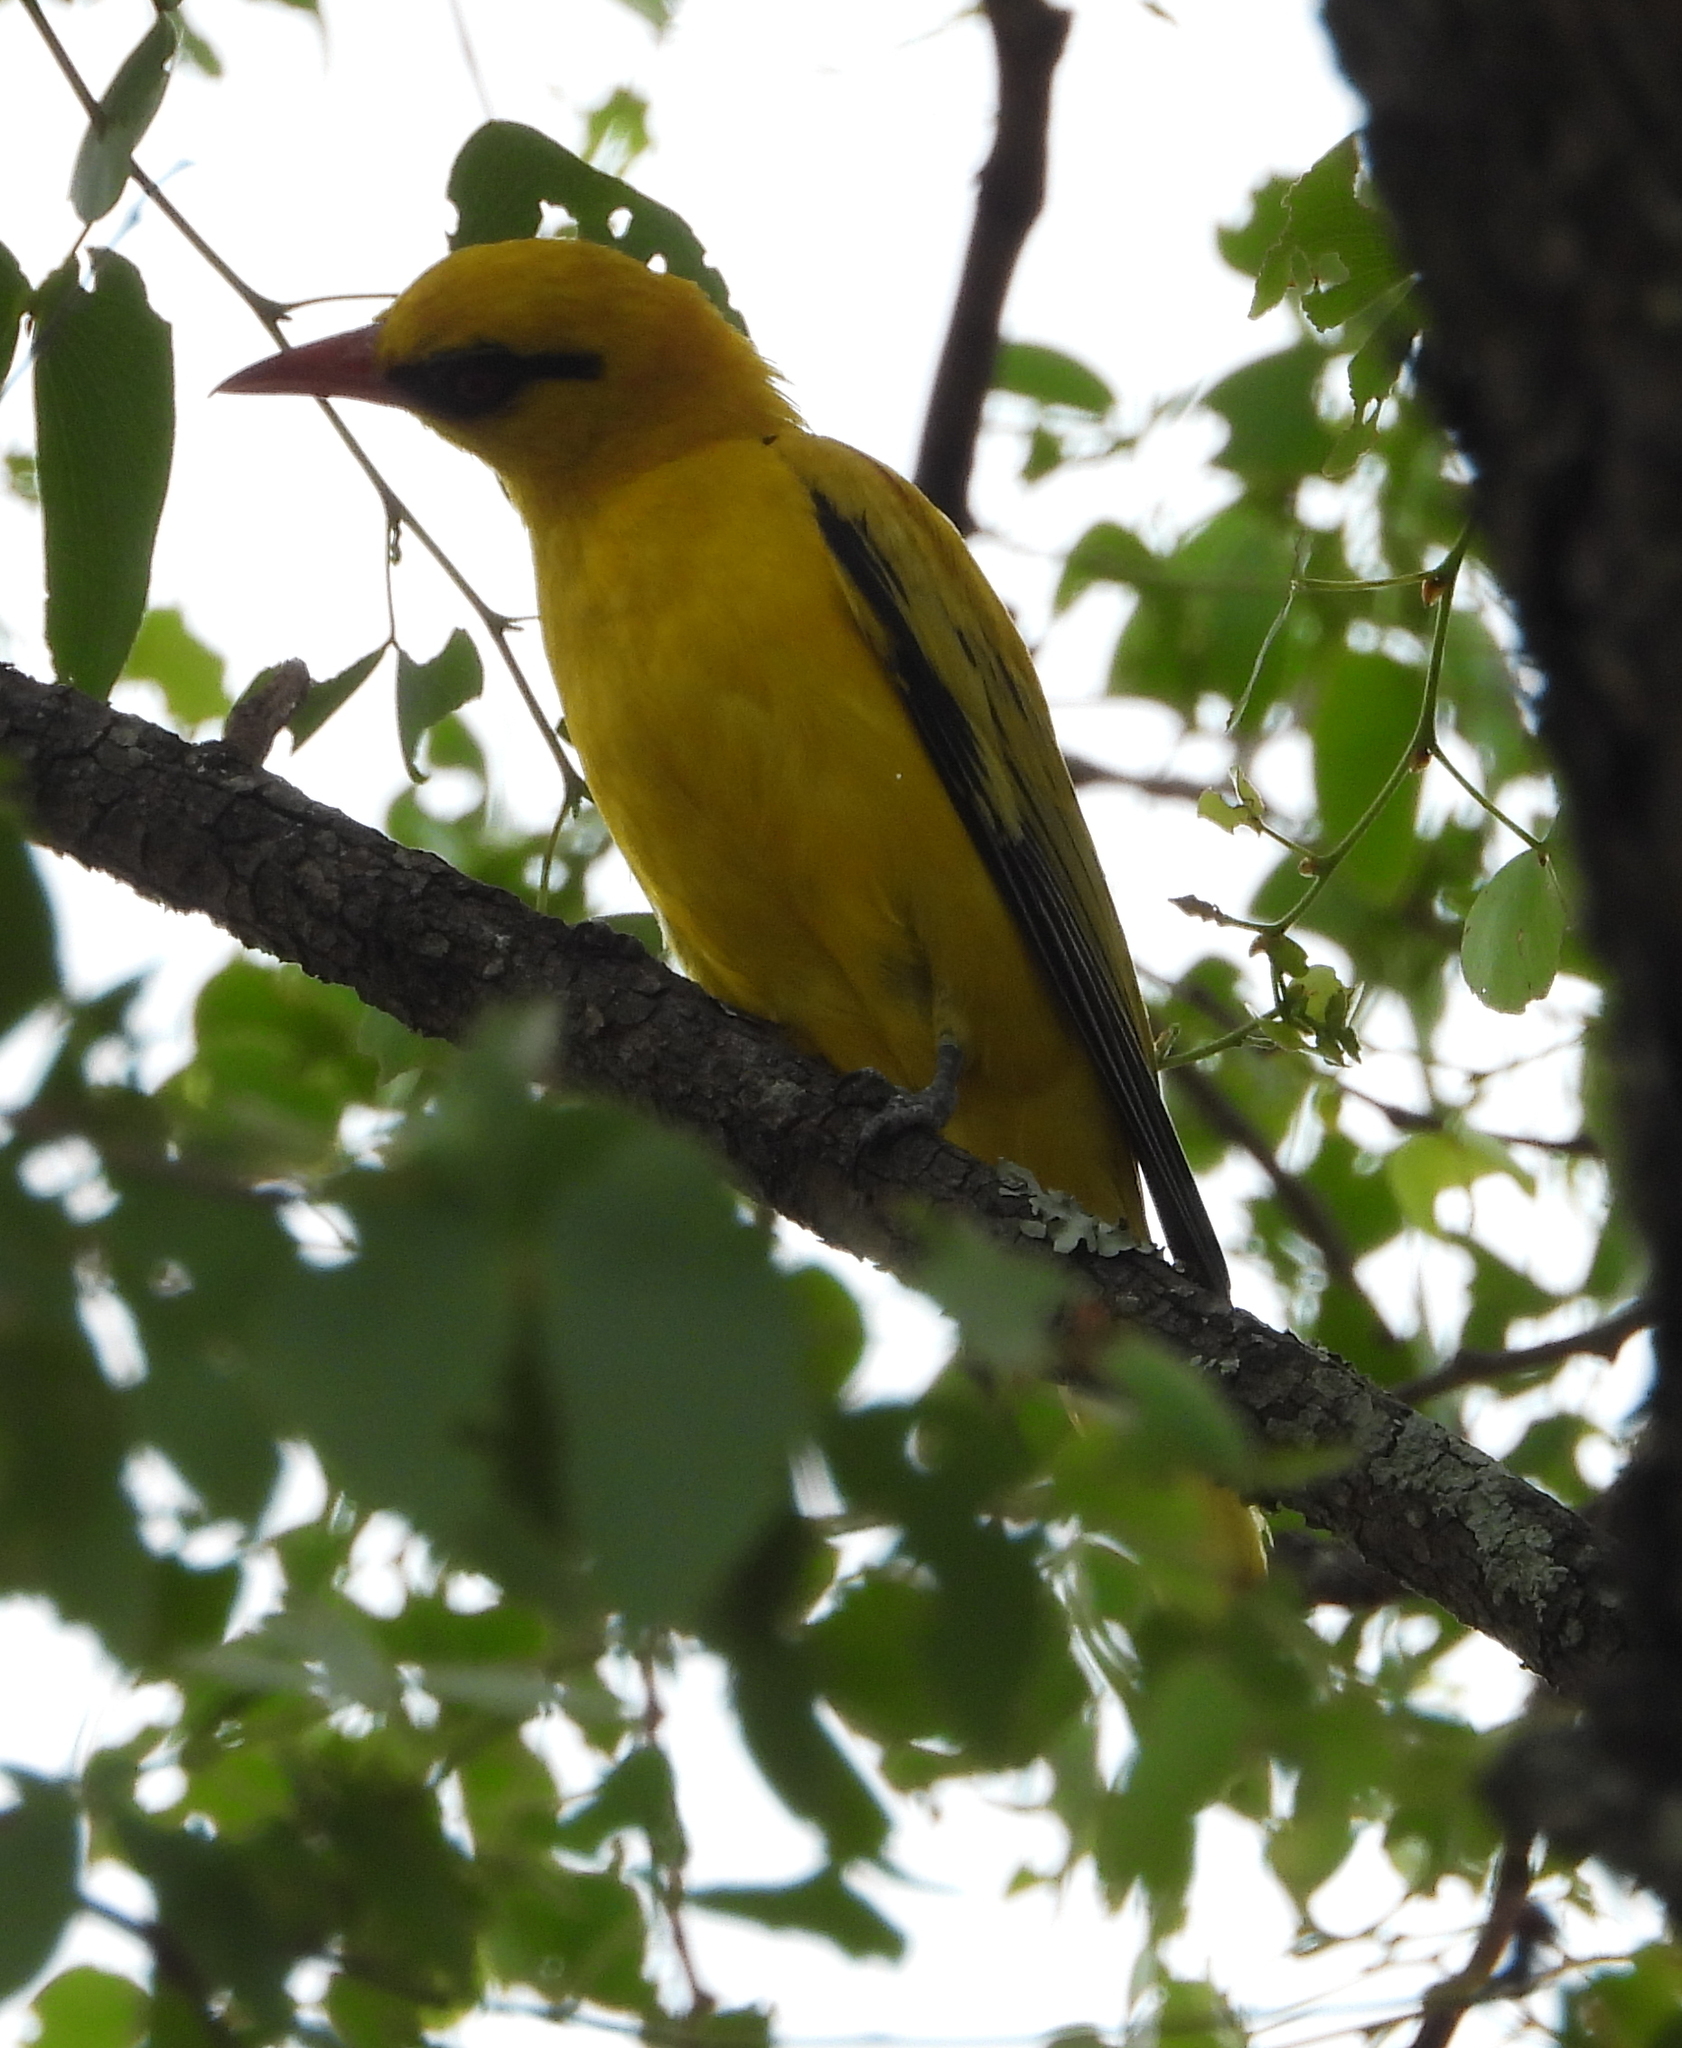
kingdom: Animalia
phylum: Chordata
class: Aves
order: Passeriformes
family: Oriolidae
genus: Oriolus
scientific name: Oriolus auratus
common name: African golden oriole
